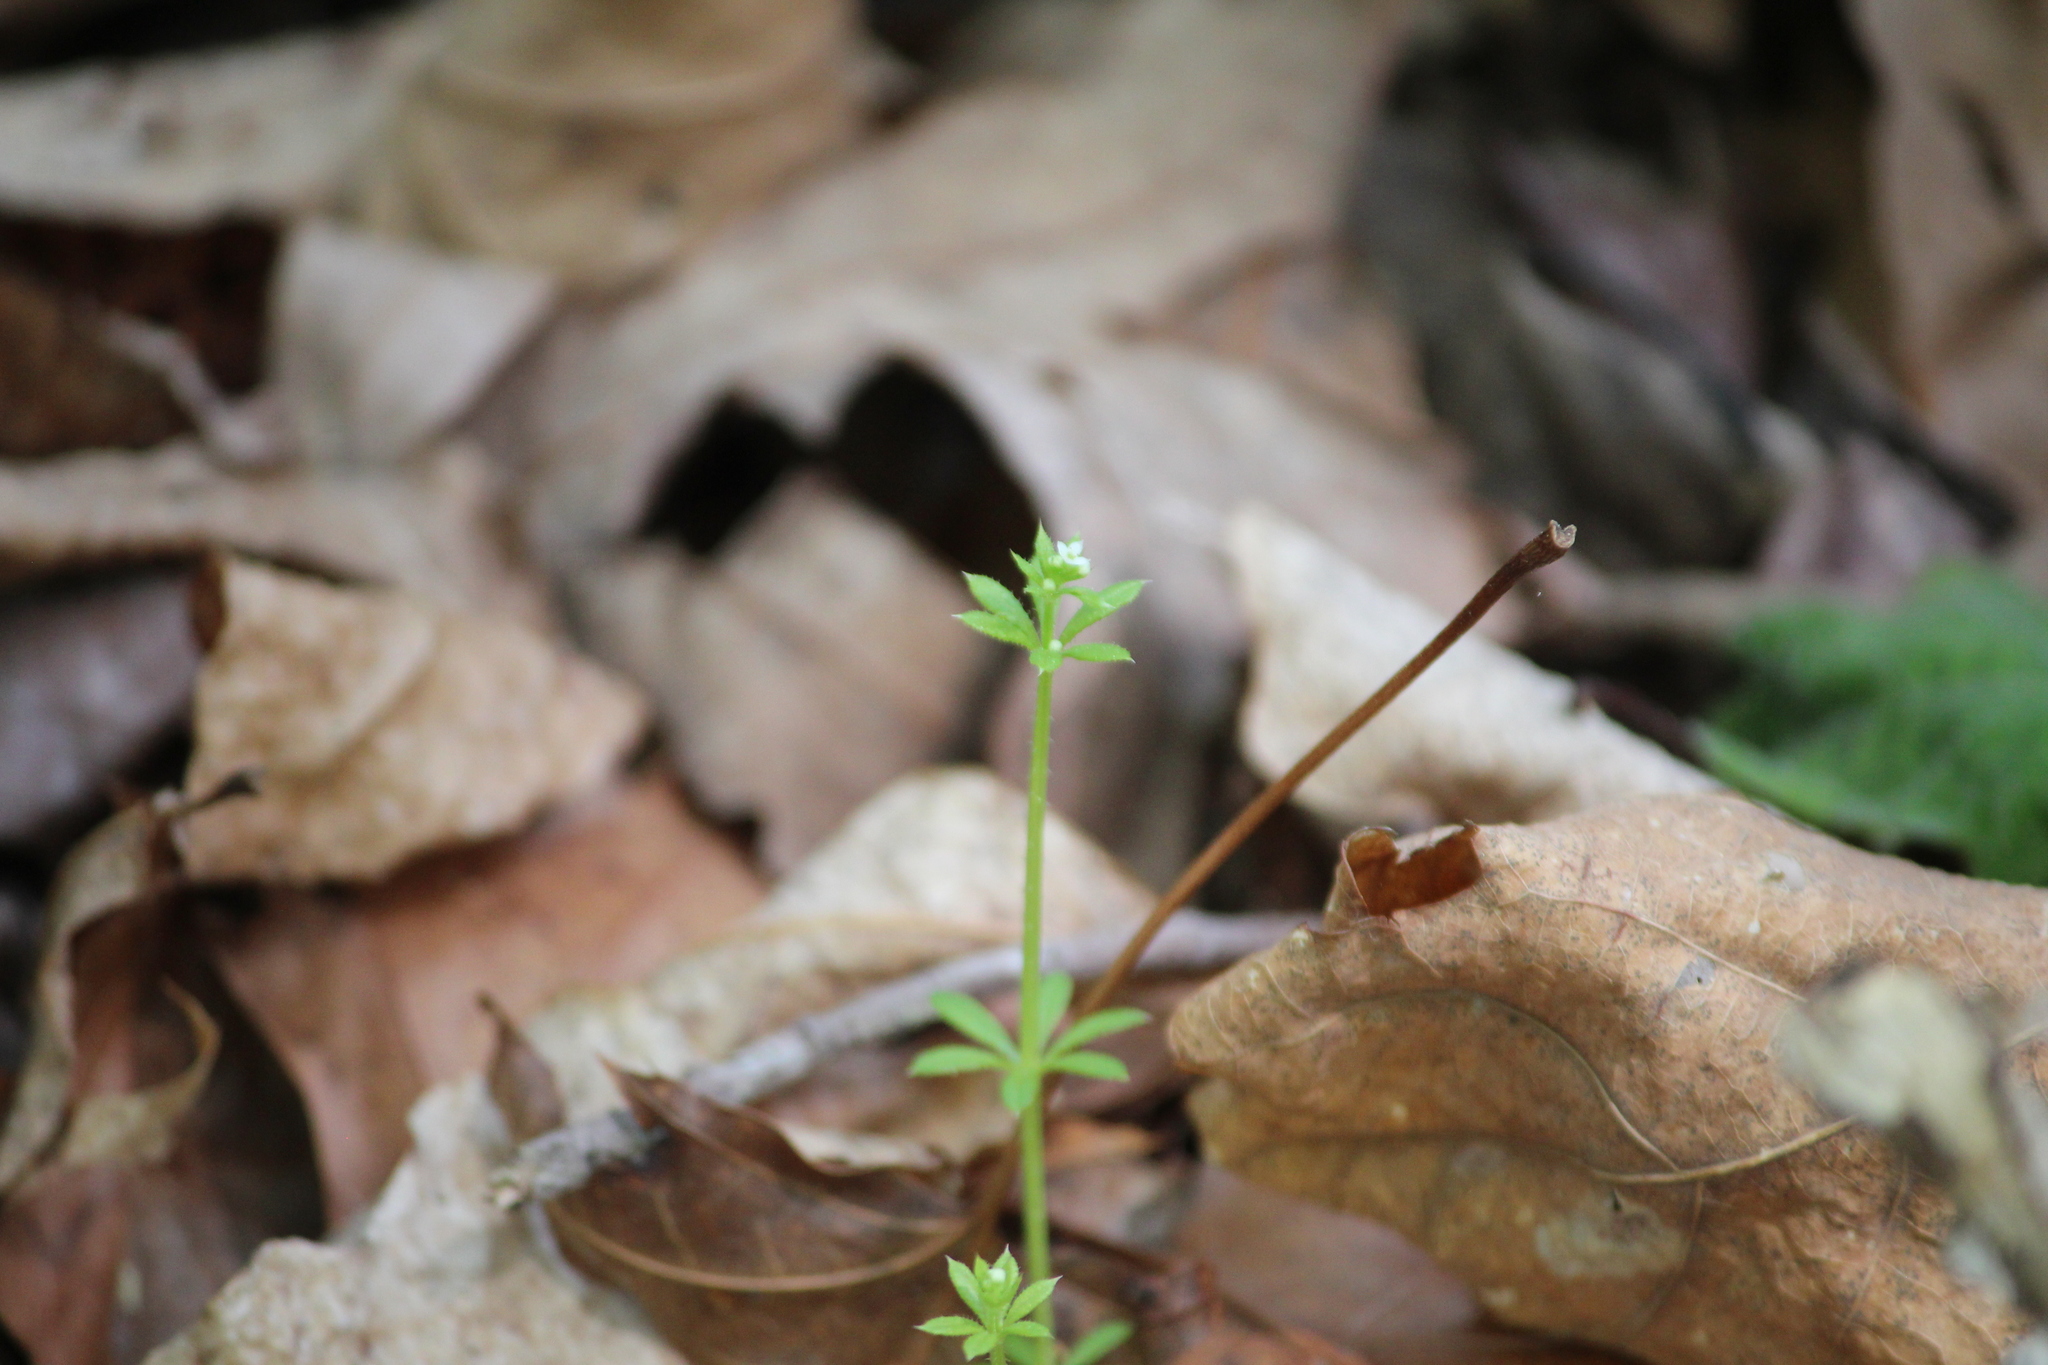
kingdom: Plantae
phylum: Tracheophyta
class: Magnoliopsida
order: Gentianales
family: Rubiaceae
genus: Galium
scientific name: Galium aparine
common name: Cleavers
